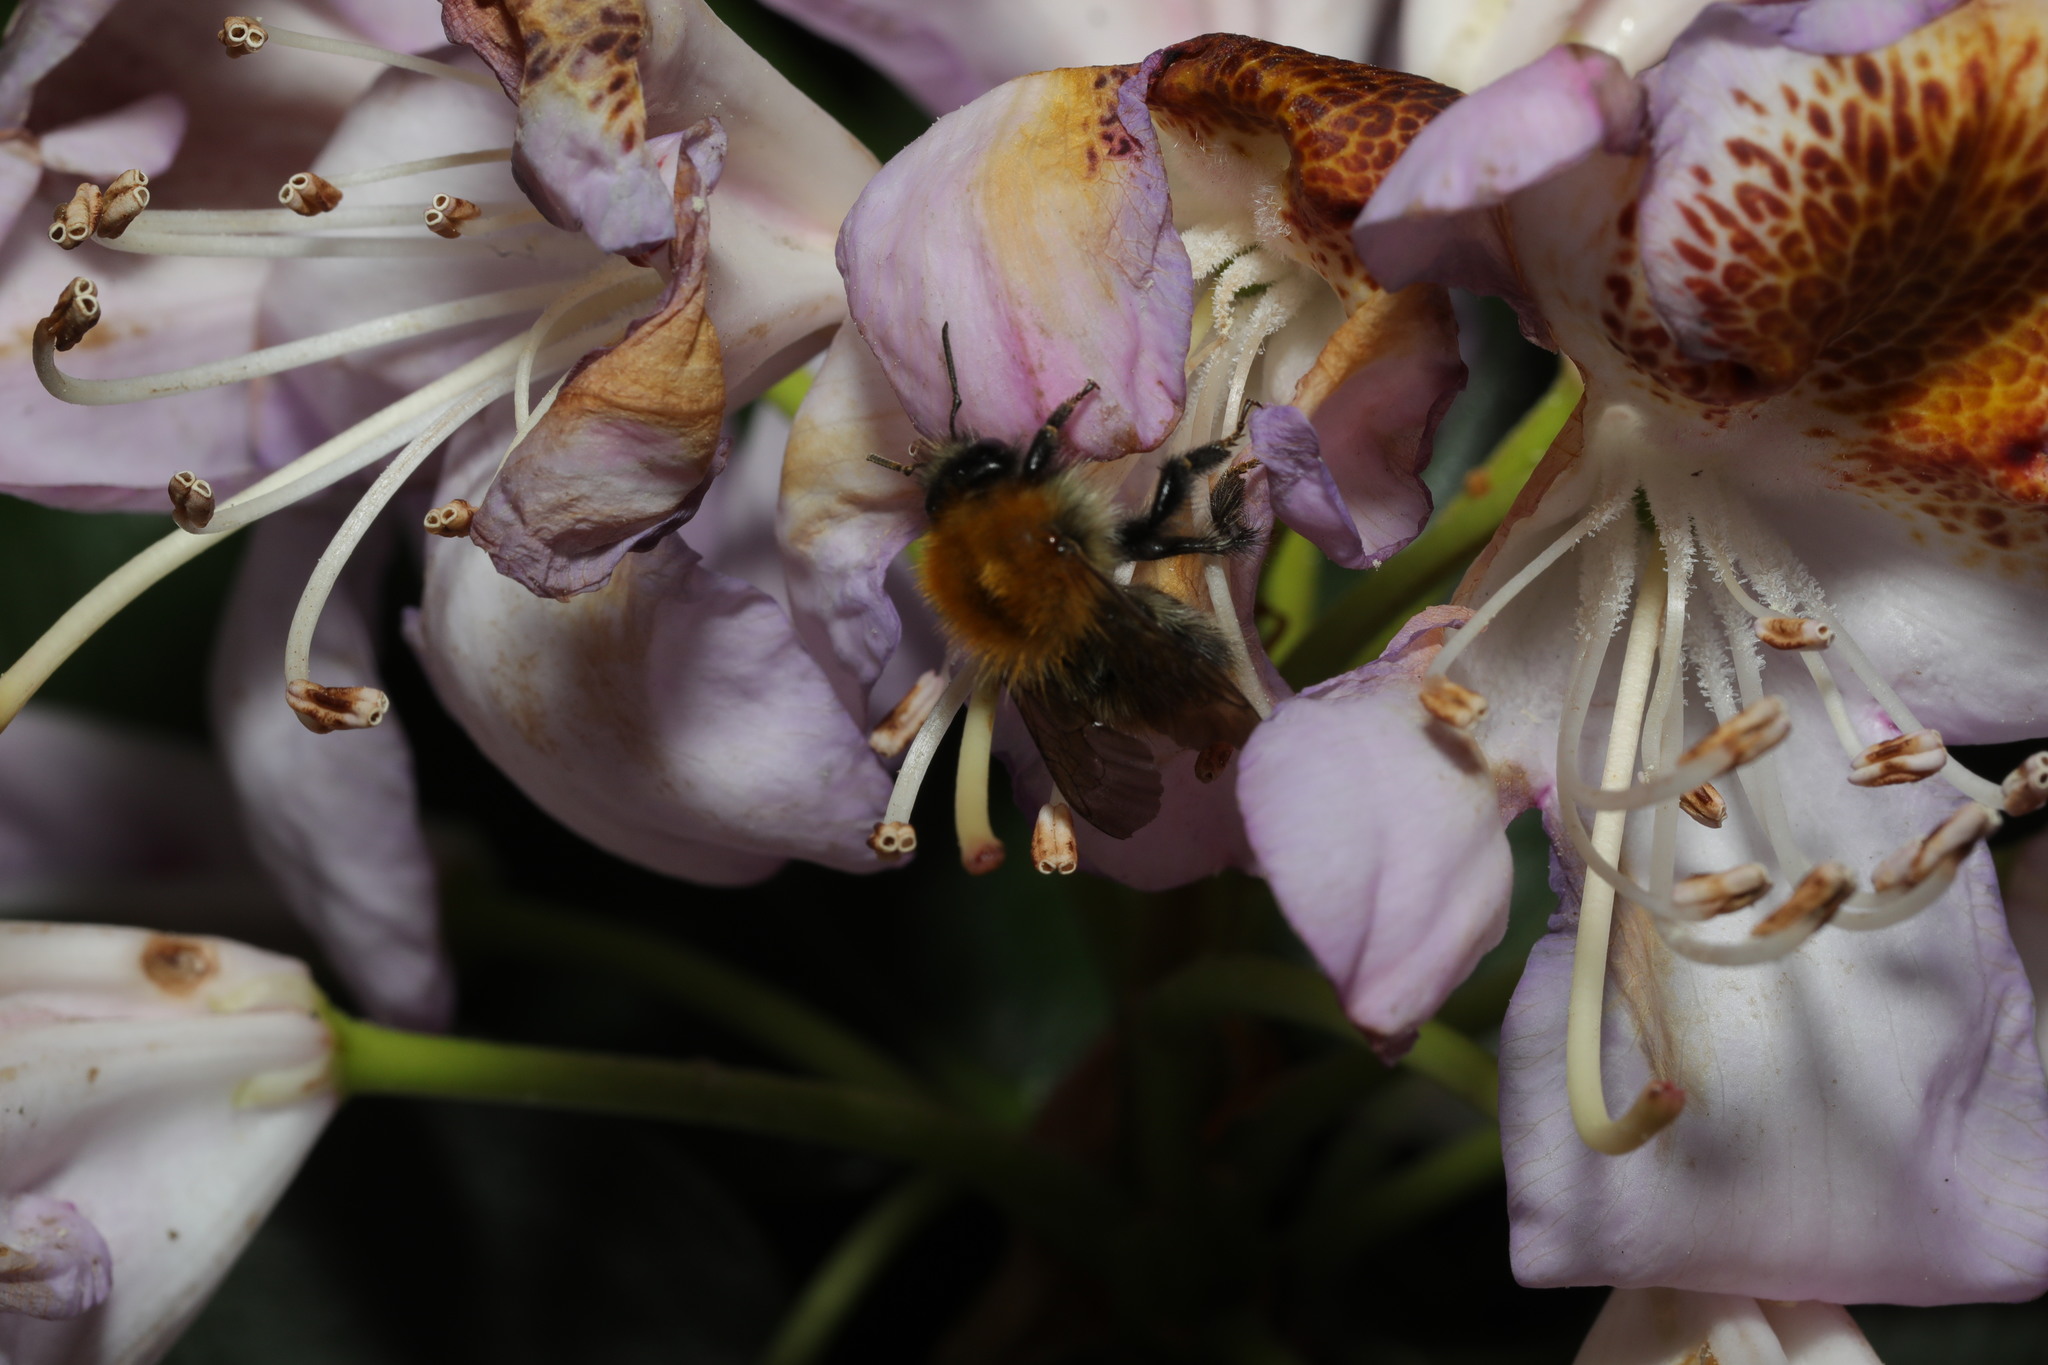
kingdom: Animalia
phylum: Arthropoda
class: Insecta
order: Hymenoptera
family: Apidae
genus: Bombus
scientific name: Bombus pascuorum
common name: Common carder bee
